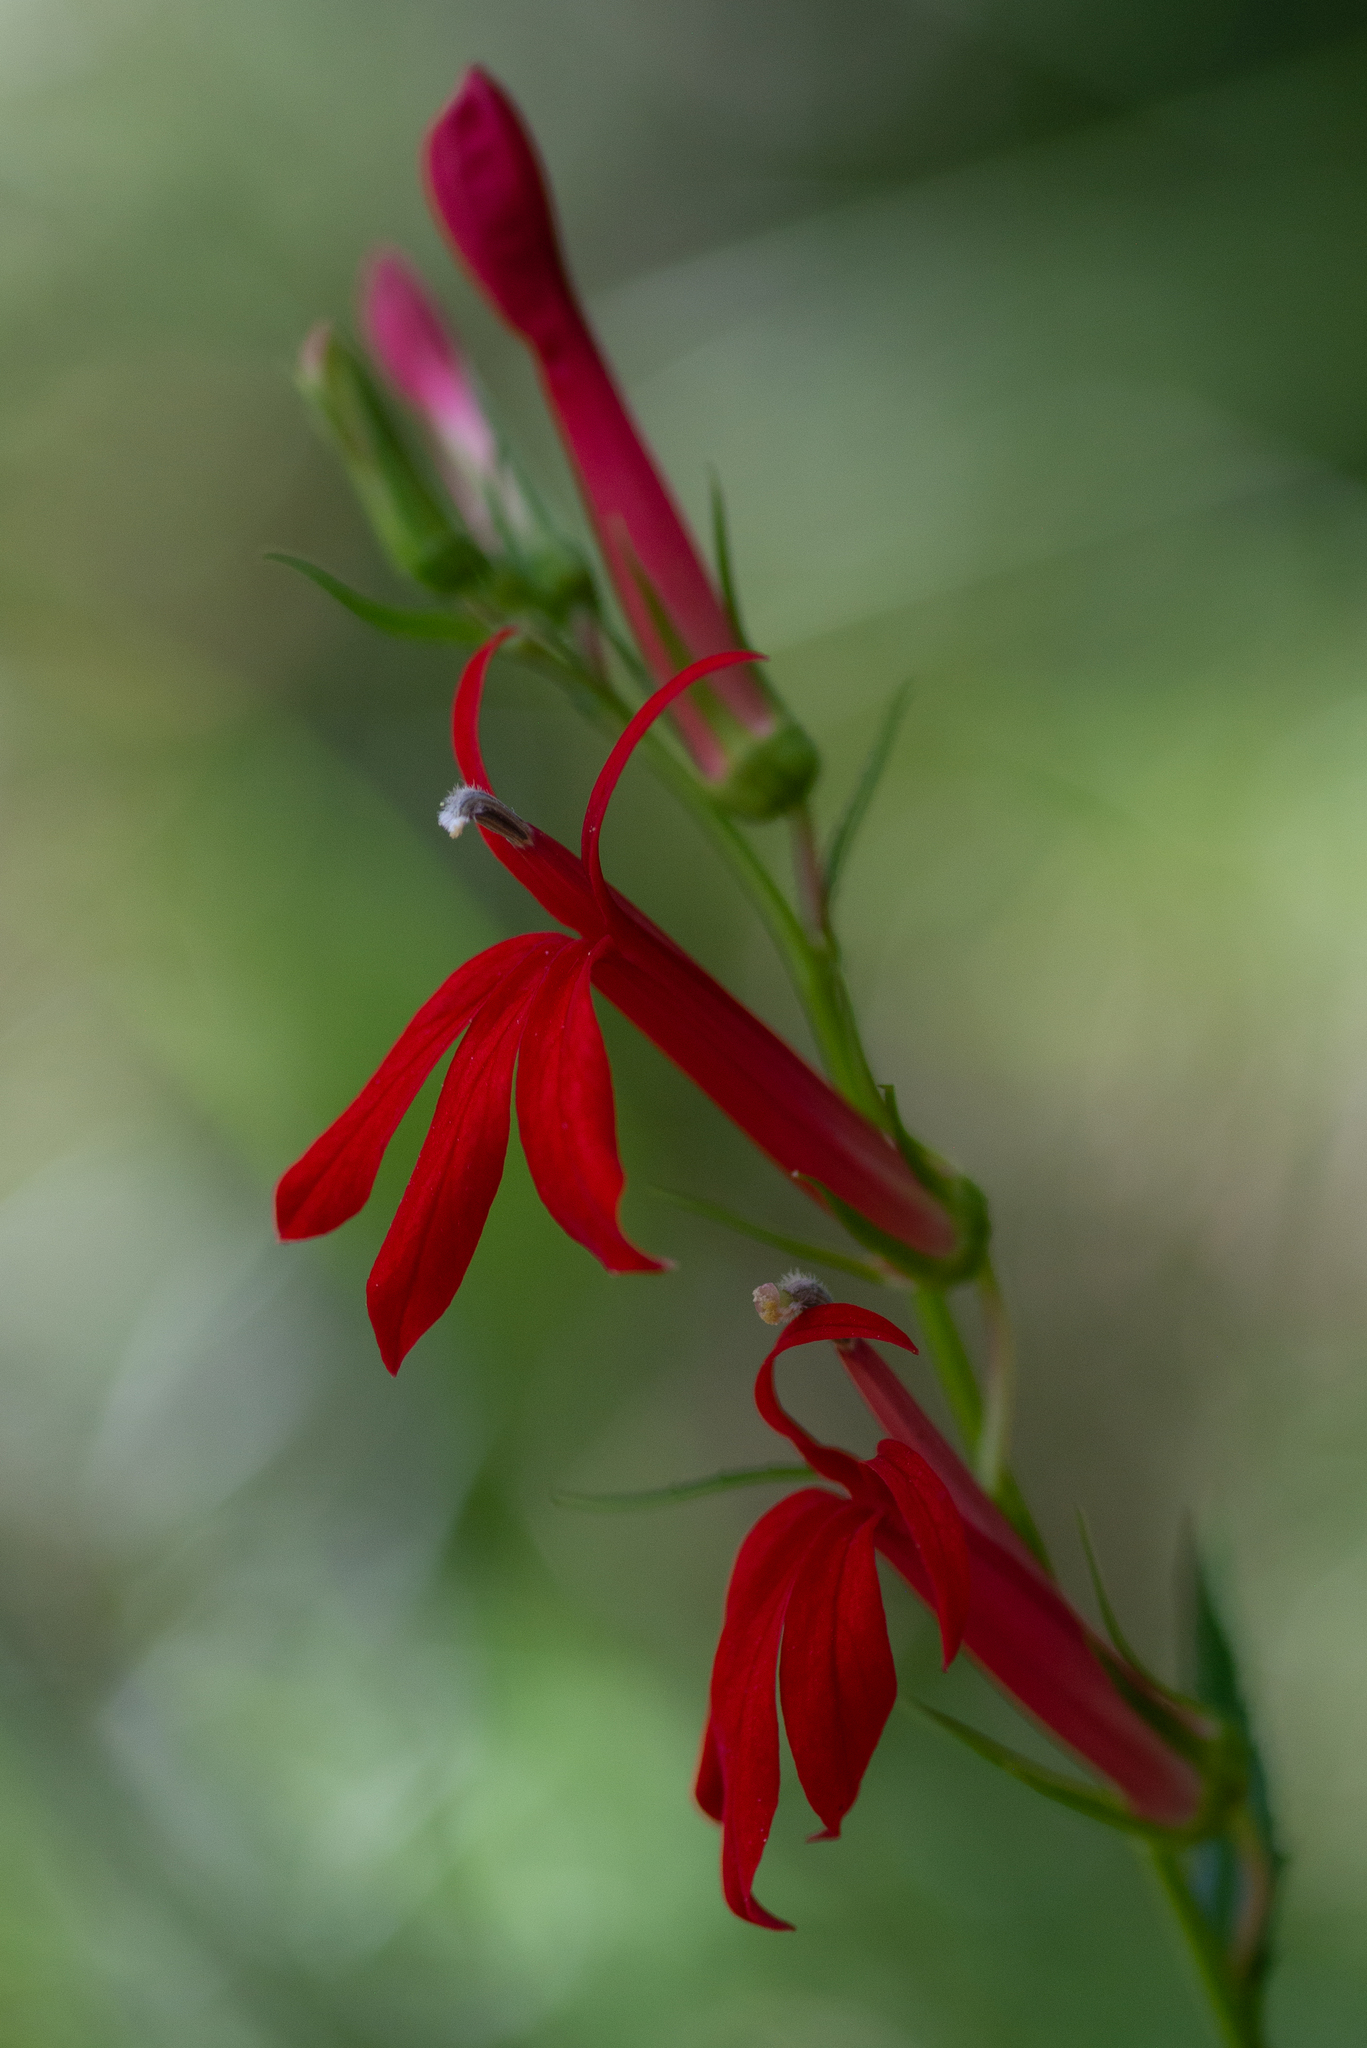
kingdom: Plantae
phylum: Tracheophyta
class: Magnoliopsida
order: Asterales
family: Campanulaceae
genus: Lobelia
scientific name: Lobelia cardinalis
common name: Cardinal flower
